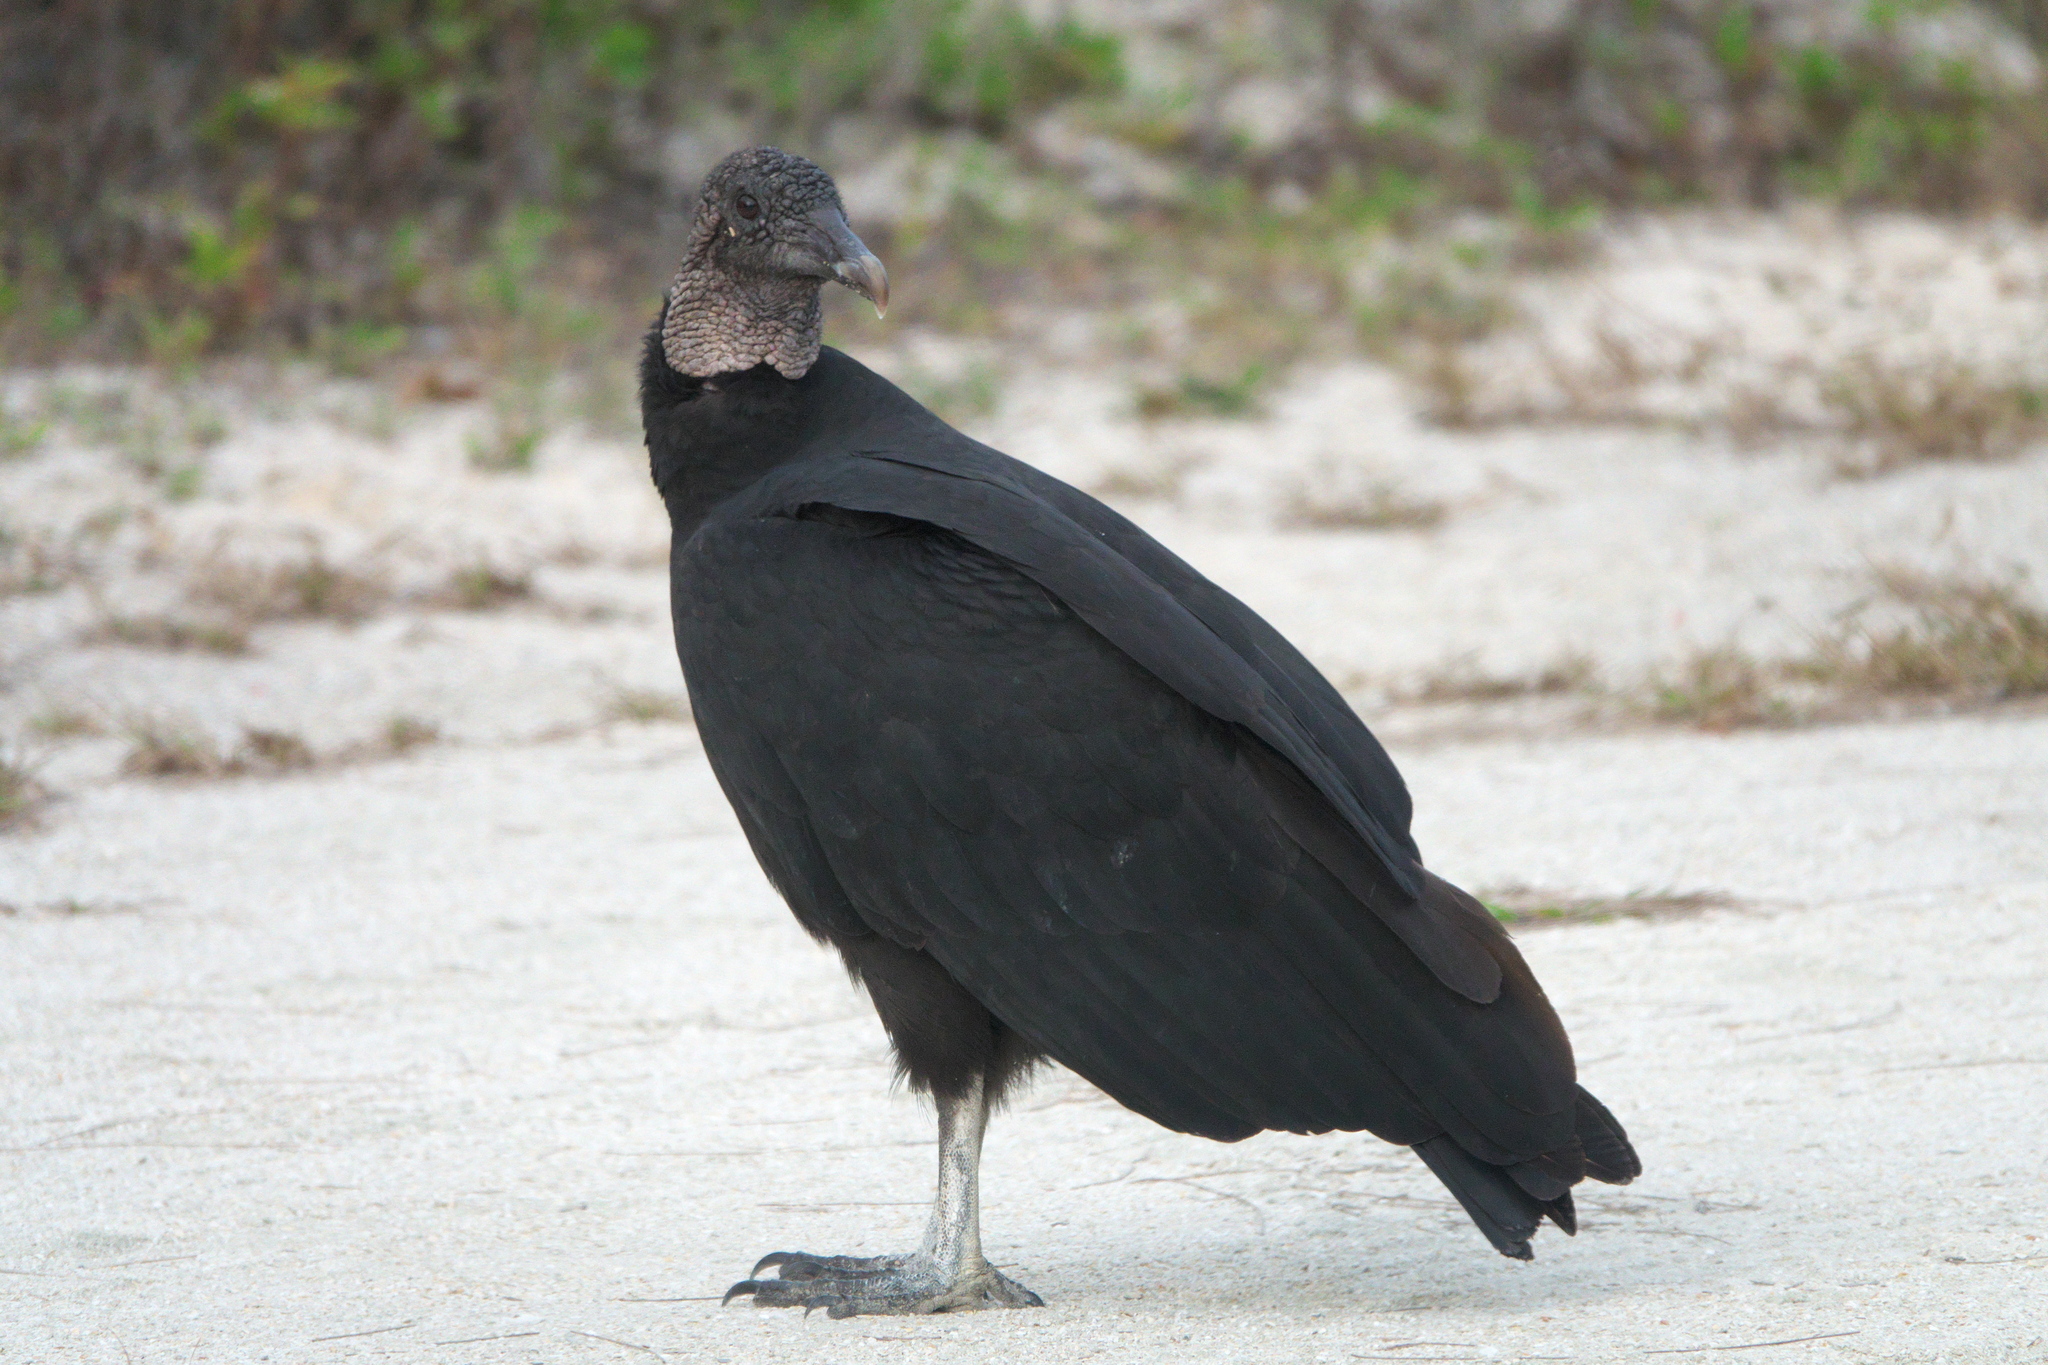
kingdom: Animalia
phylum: Chordata
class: Aves
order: Accipitriformes
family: Cathartidae
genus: Coragyps
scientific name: Coragyps atratus
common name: Black vulture
